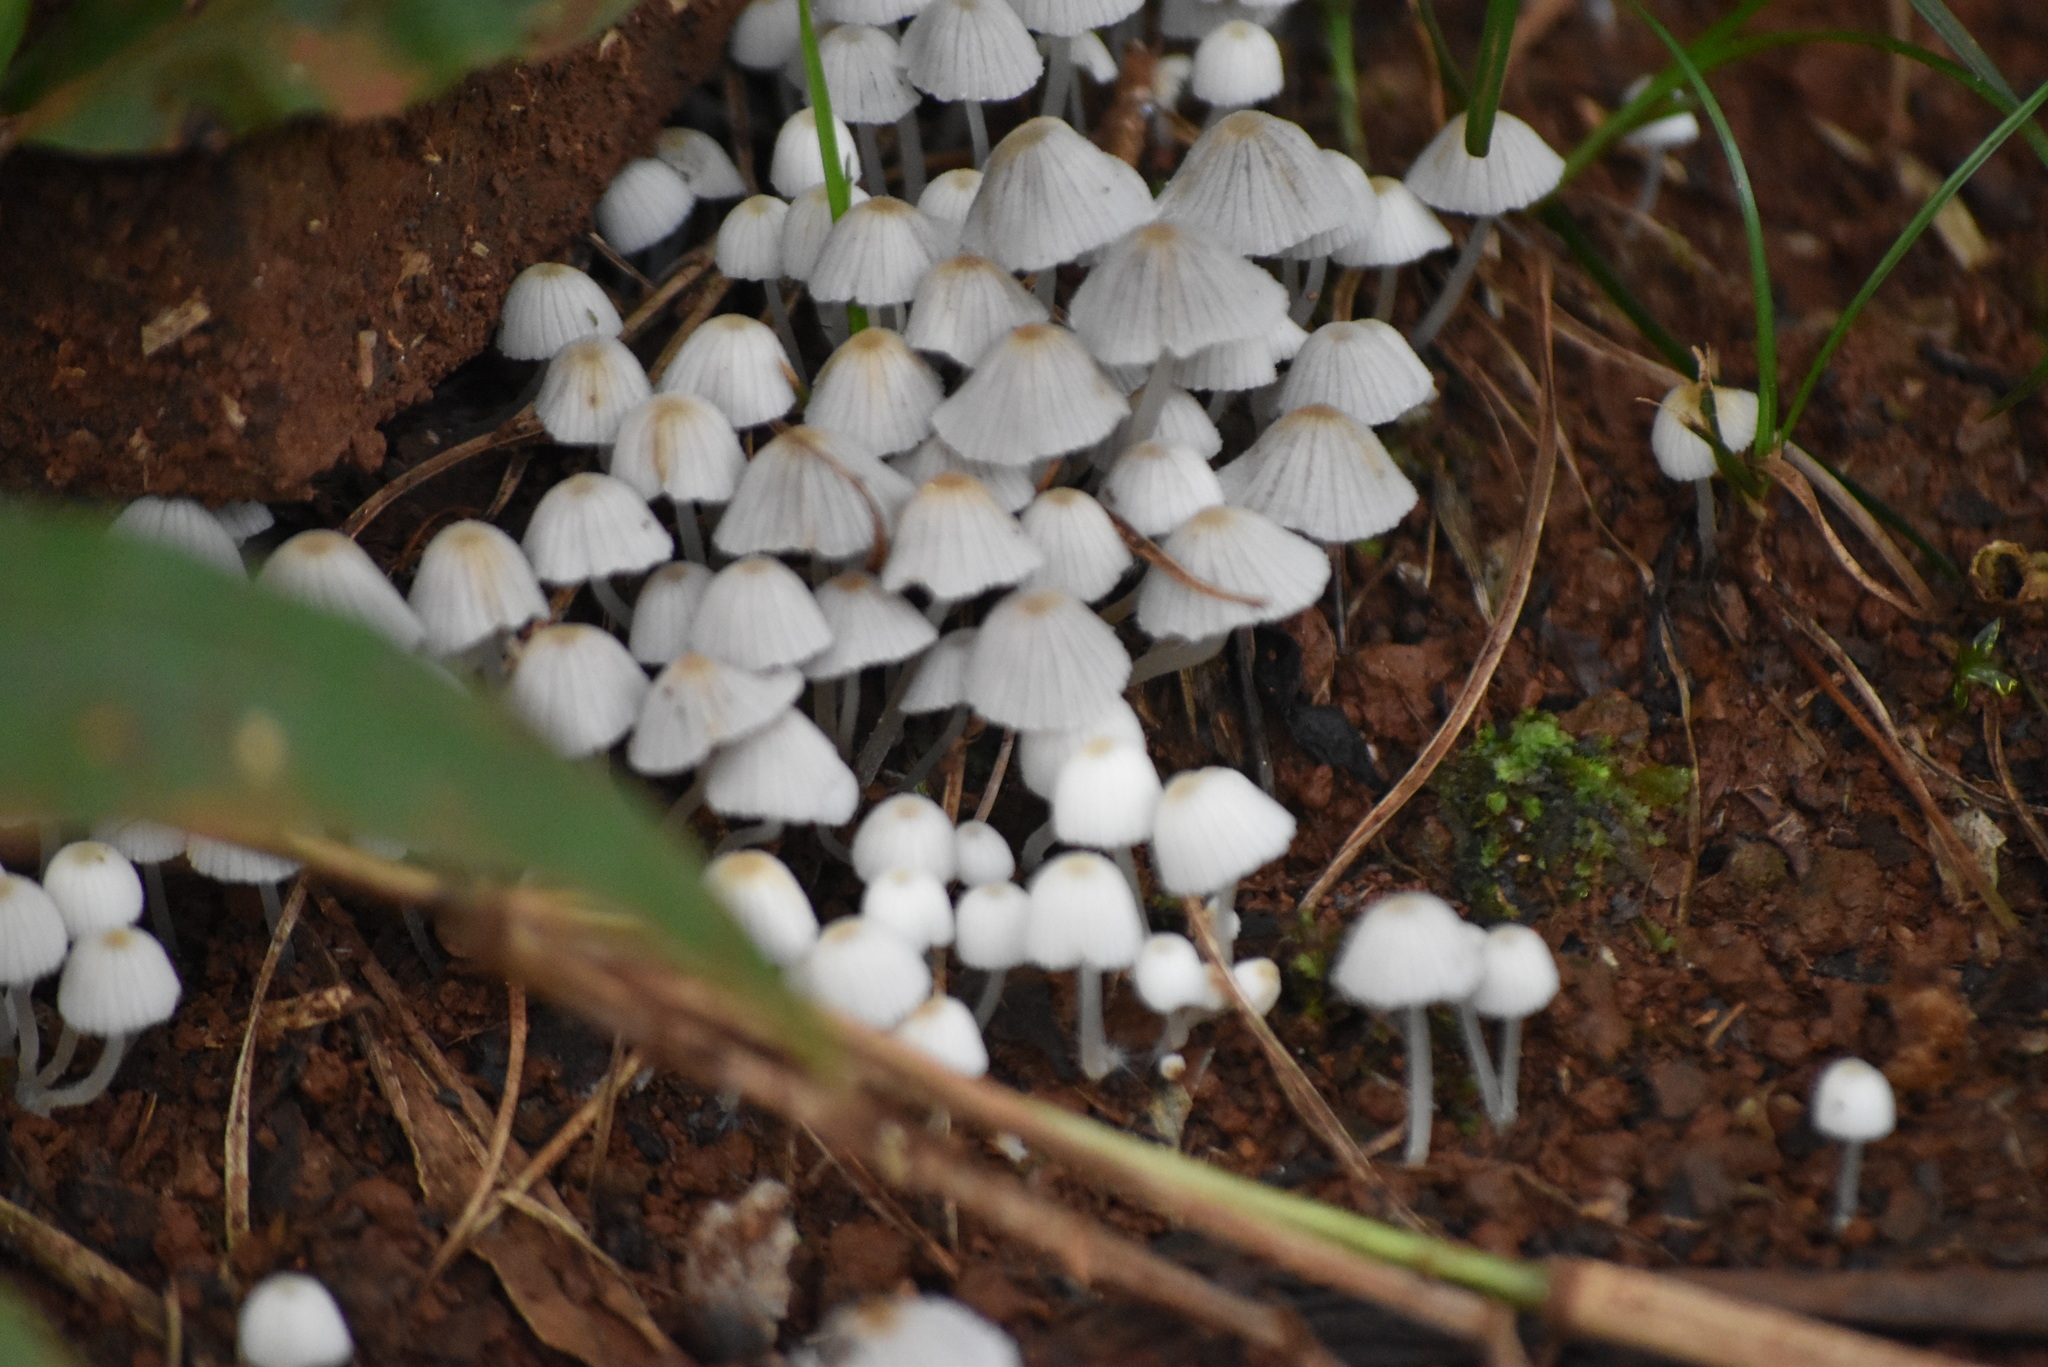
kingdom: Fungi
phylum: Basidiomycota
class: Agaricomycetes
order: Agaricales
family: Psathyrellaceae
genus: Coprinellus
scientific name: Coprinellus disseminatus
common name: Fairies' bonnets
